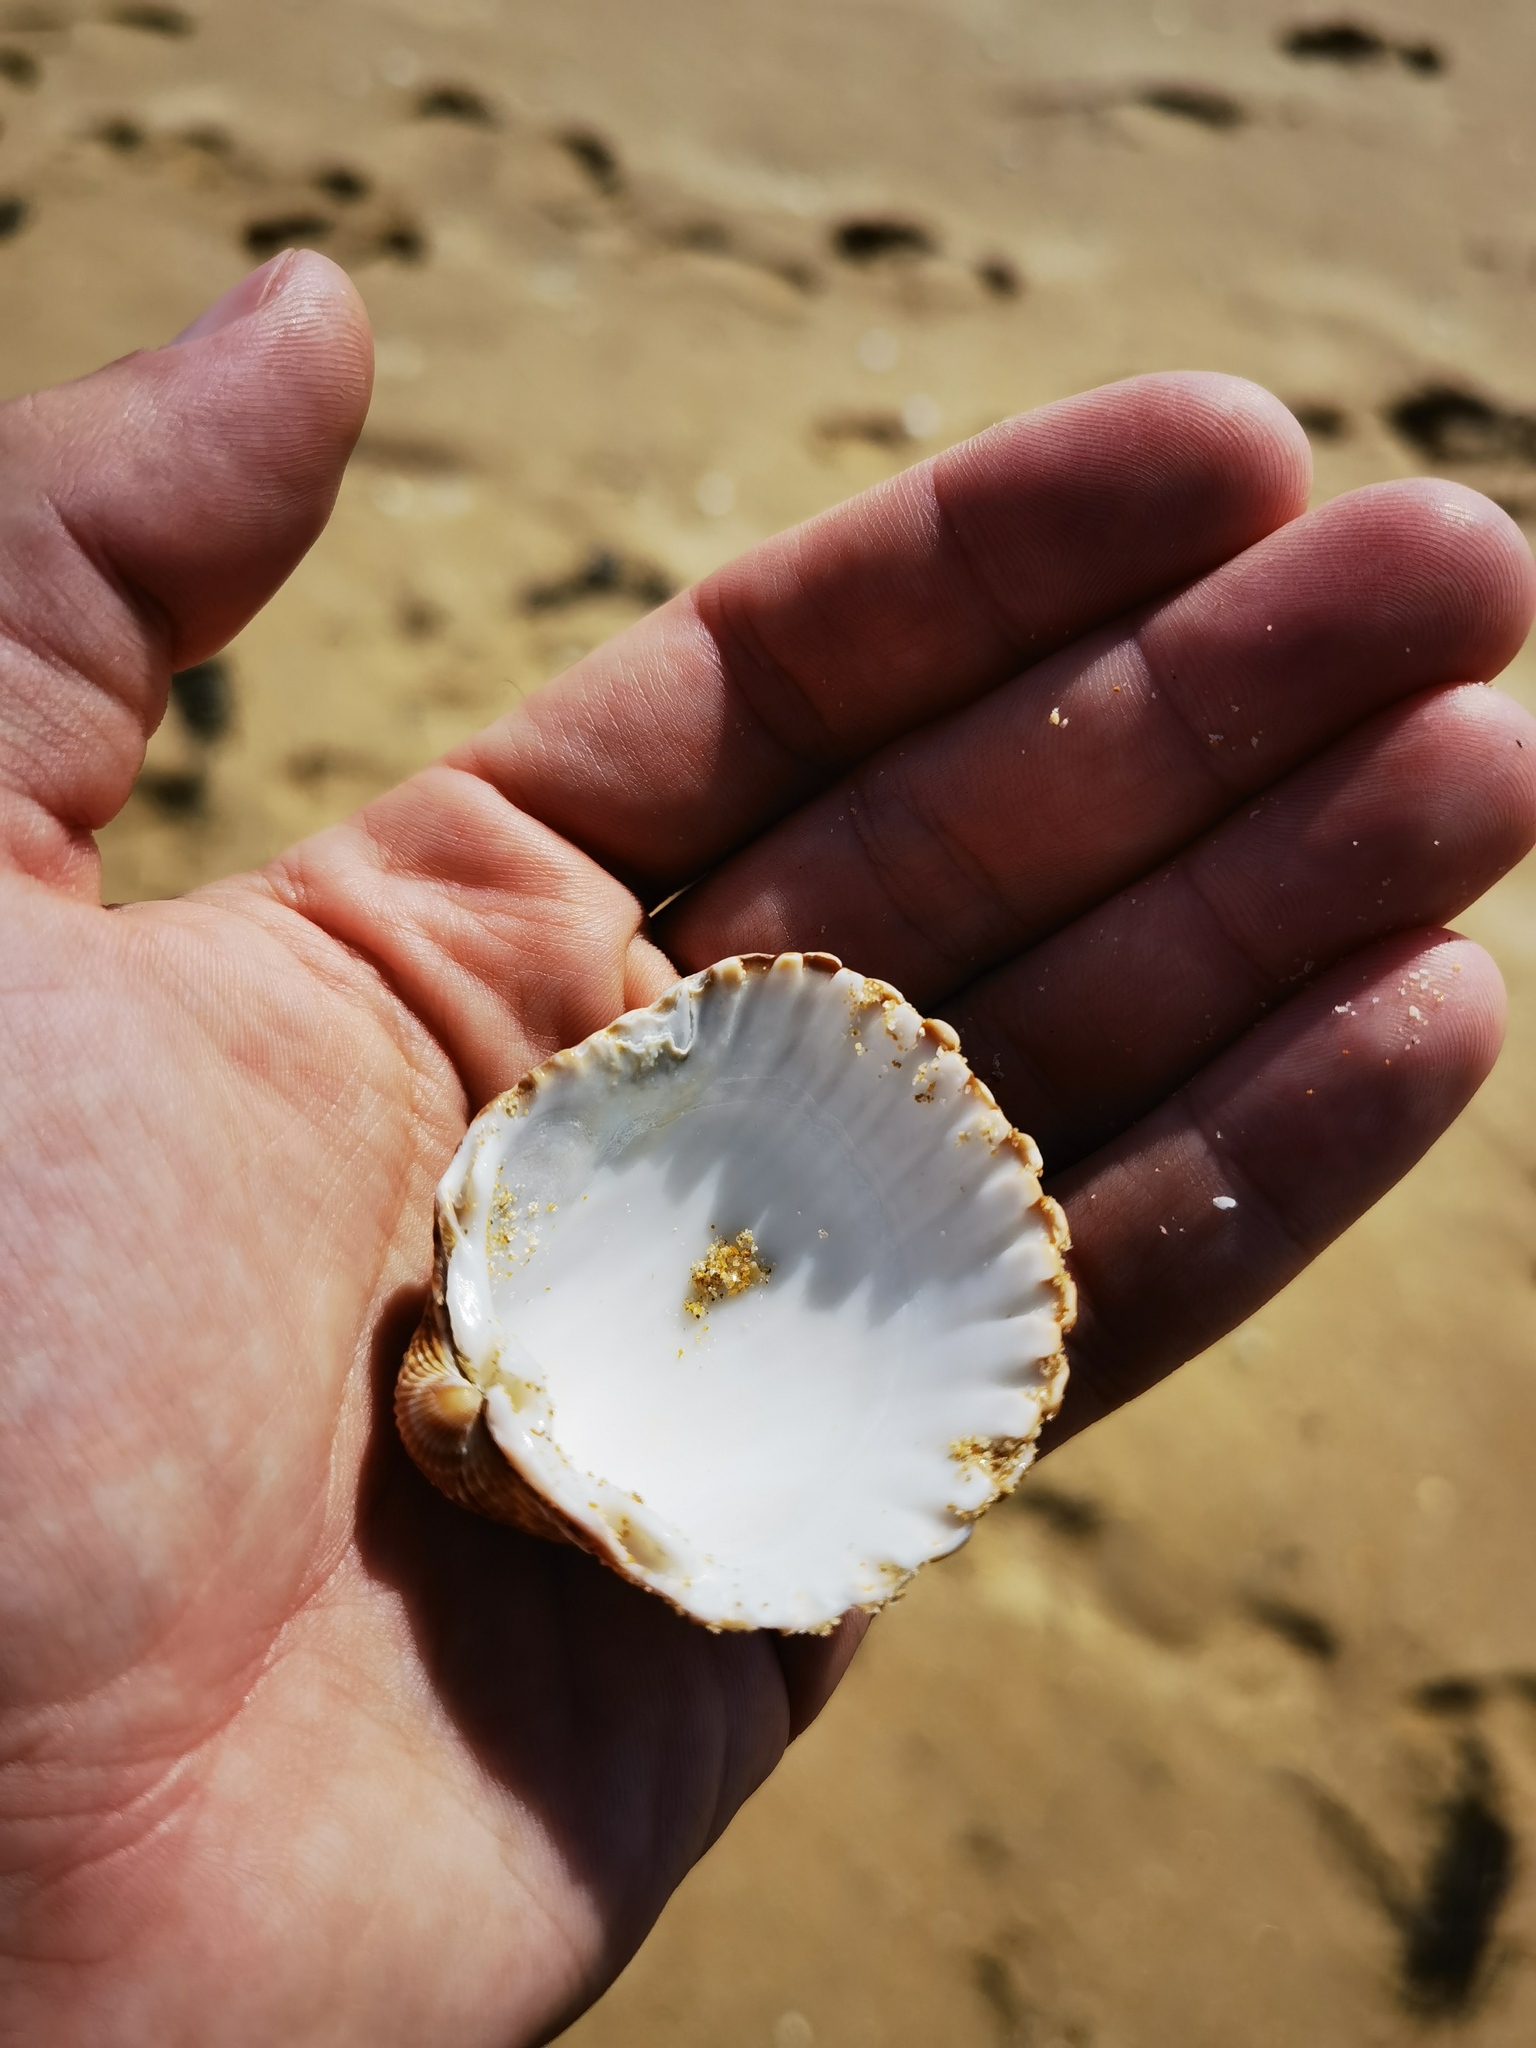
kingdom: Animalia
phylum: Mollusca
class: Bivalvia
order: Cardiida
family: Cardiidae
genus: Acanthocardia
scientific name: Acanthocardia tuberculata
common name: Rough cockle
